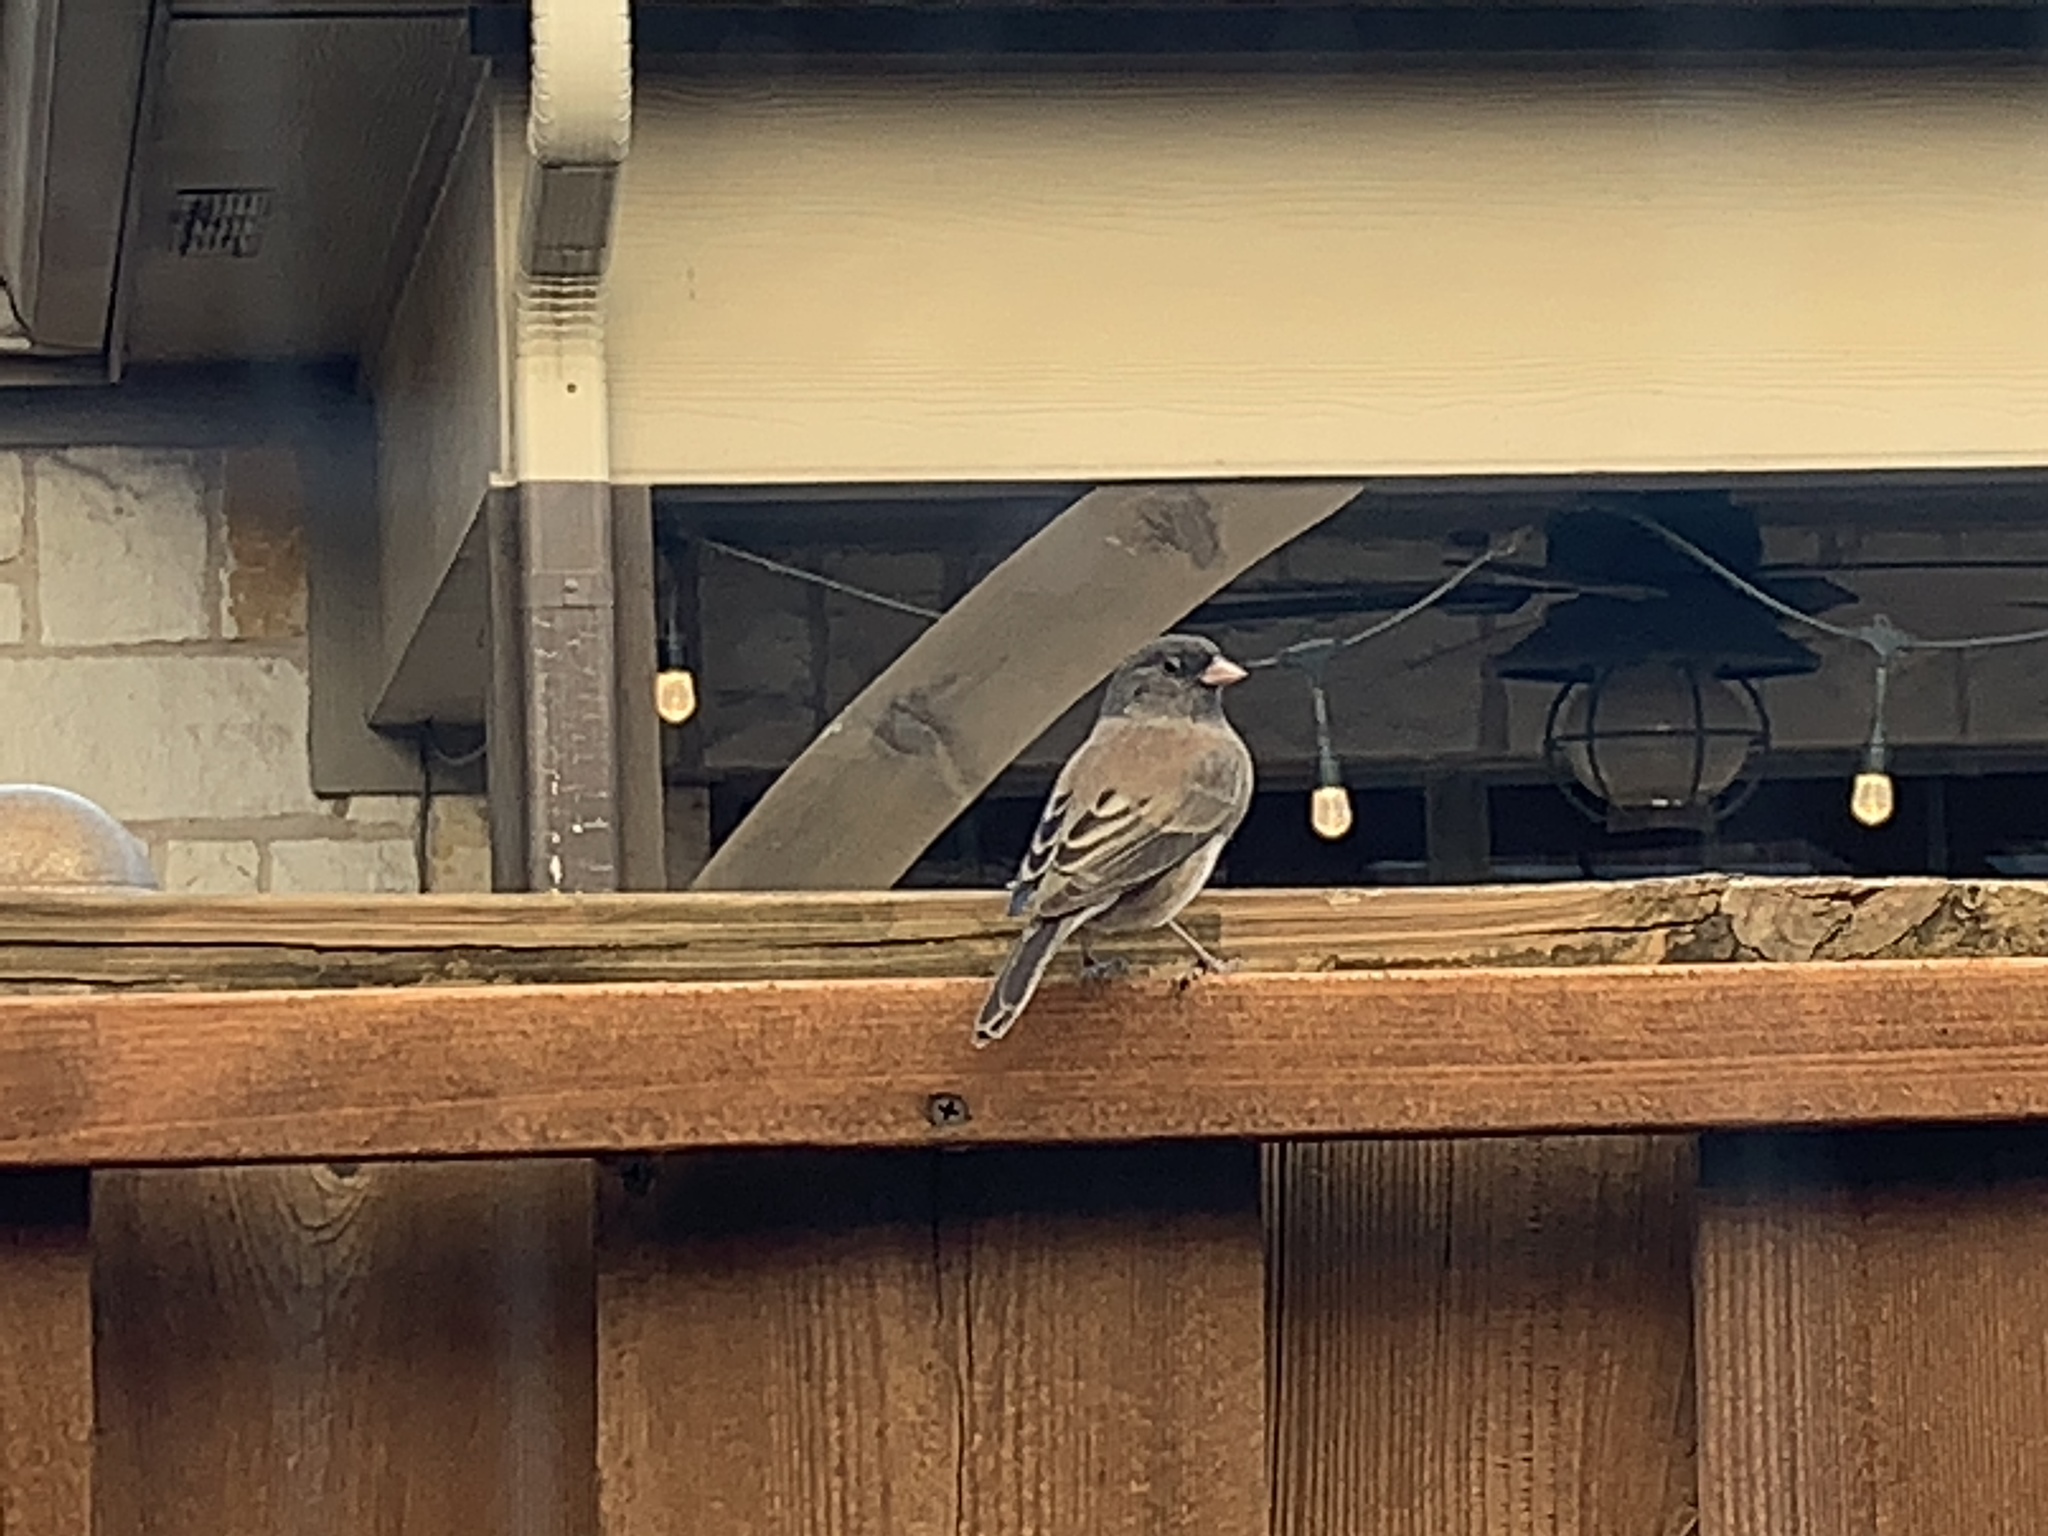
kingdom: Animalia
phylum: Chordata
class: Aves
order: Passeriformes
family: Passerellidae
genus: Junco
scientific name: Junco hyemalis
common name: Dark-eyed junco
